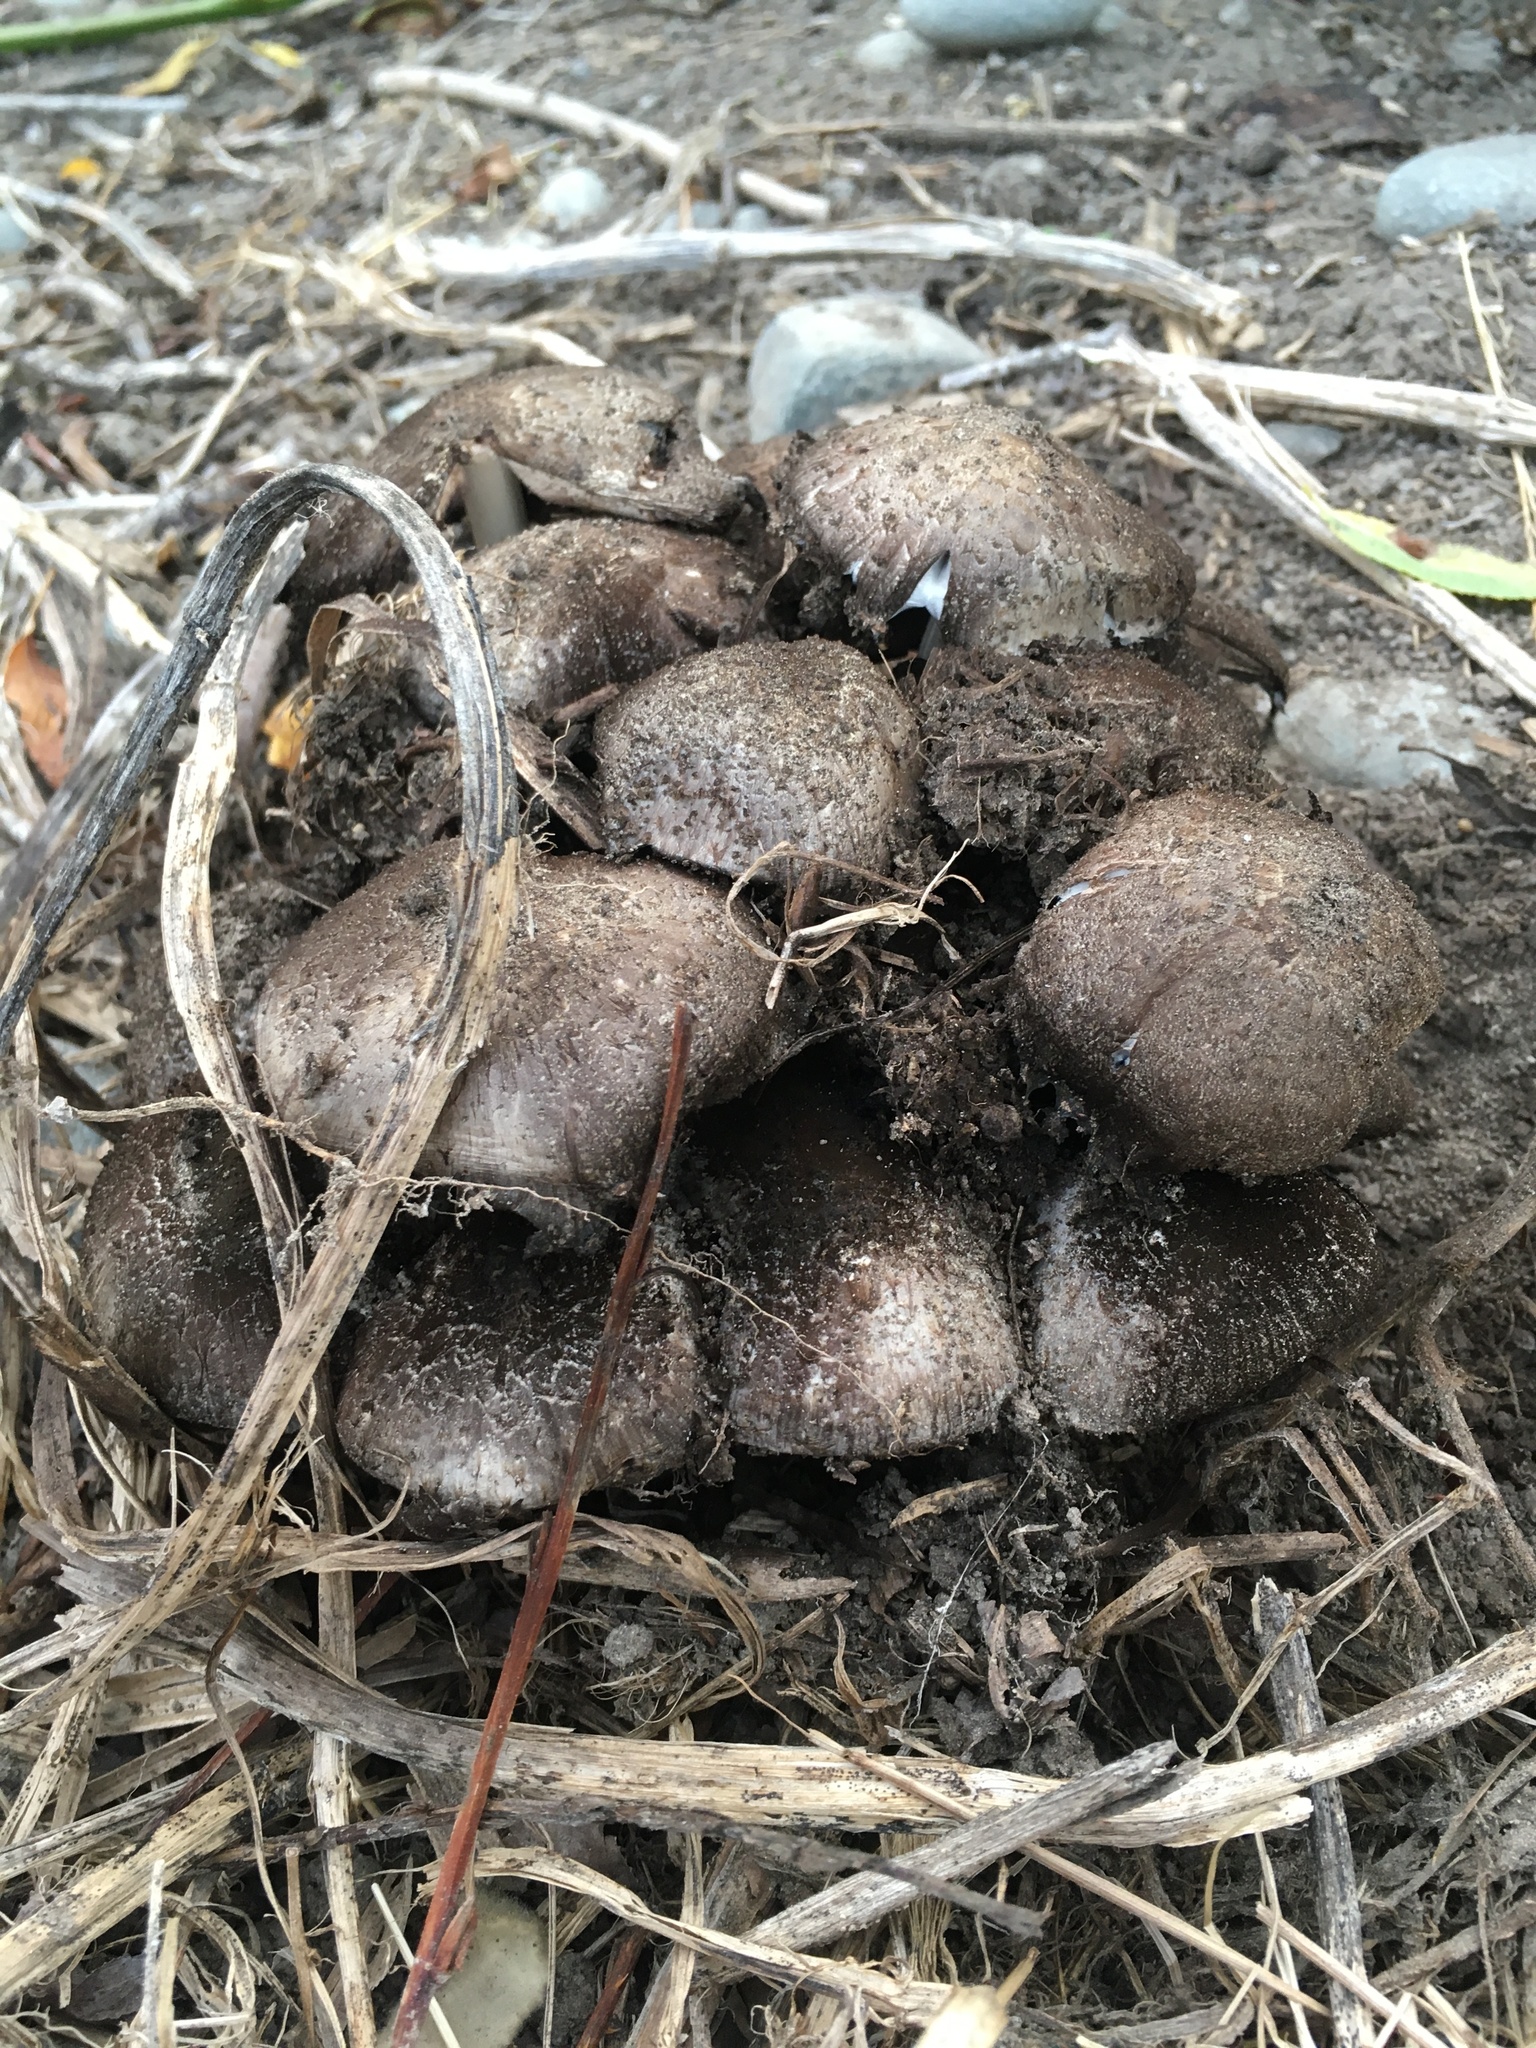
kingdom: Fungi
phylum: Basidiomycota
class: Agaricomycetes
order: Agaricales
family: Psathyrellaceae
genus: Coprinopsis
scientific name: Coprinopsis atramentaria
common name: Common ink-cap
